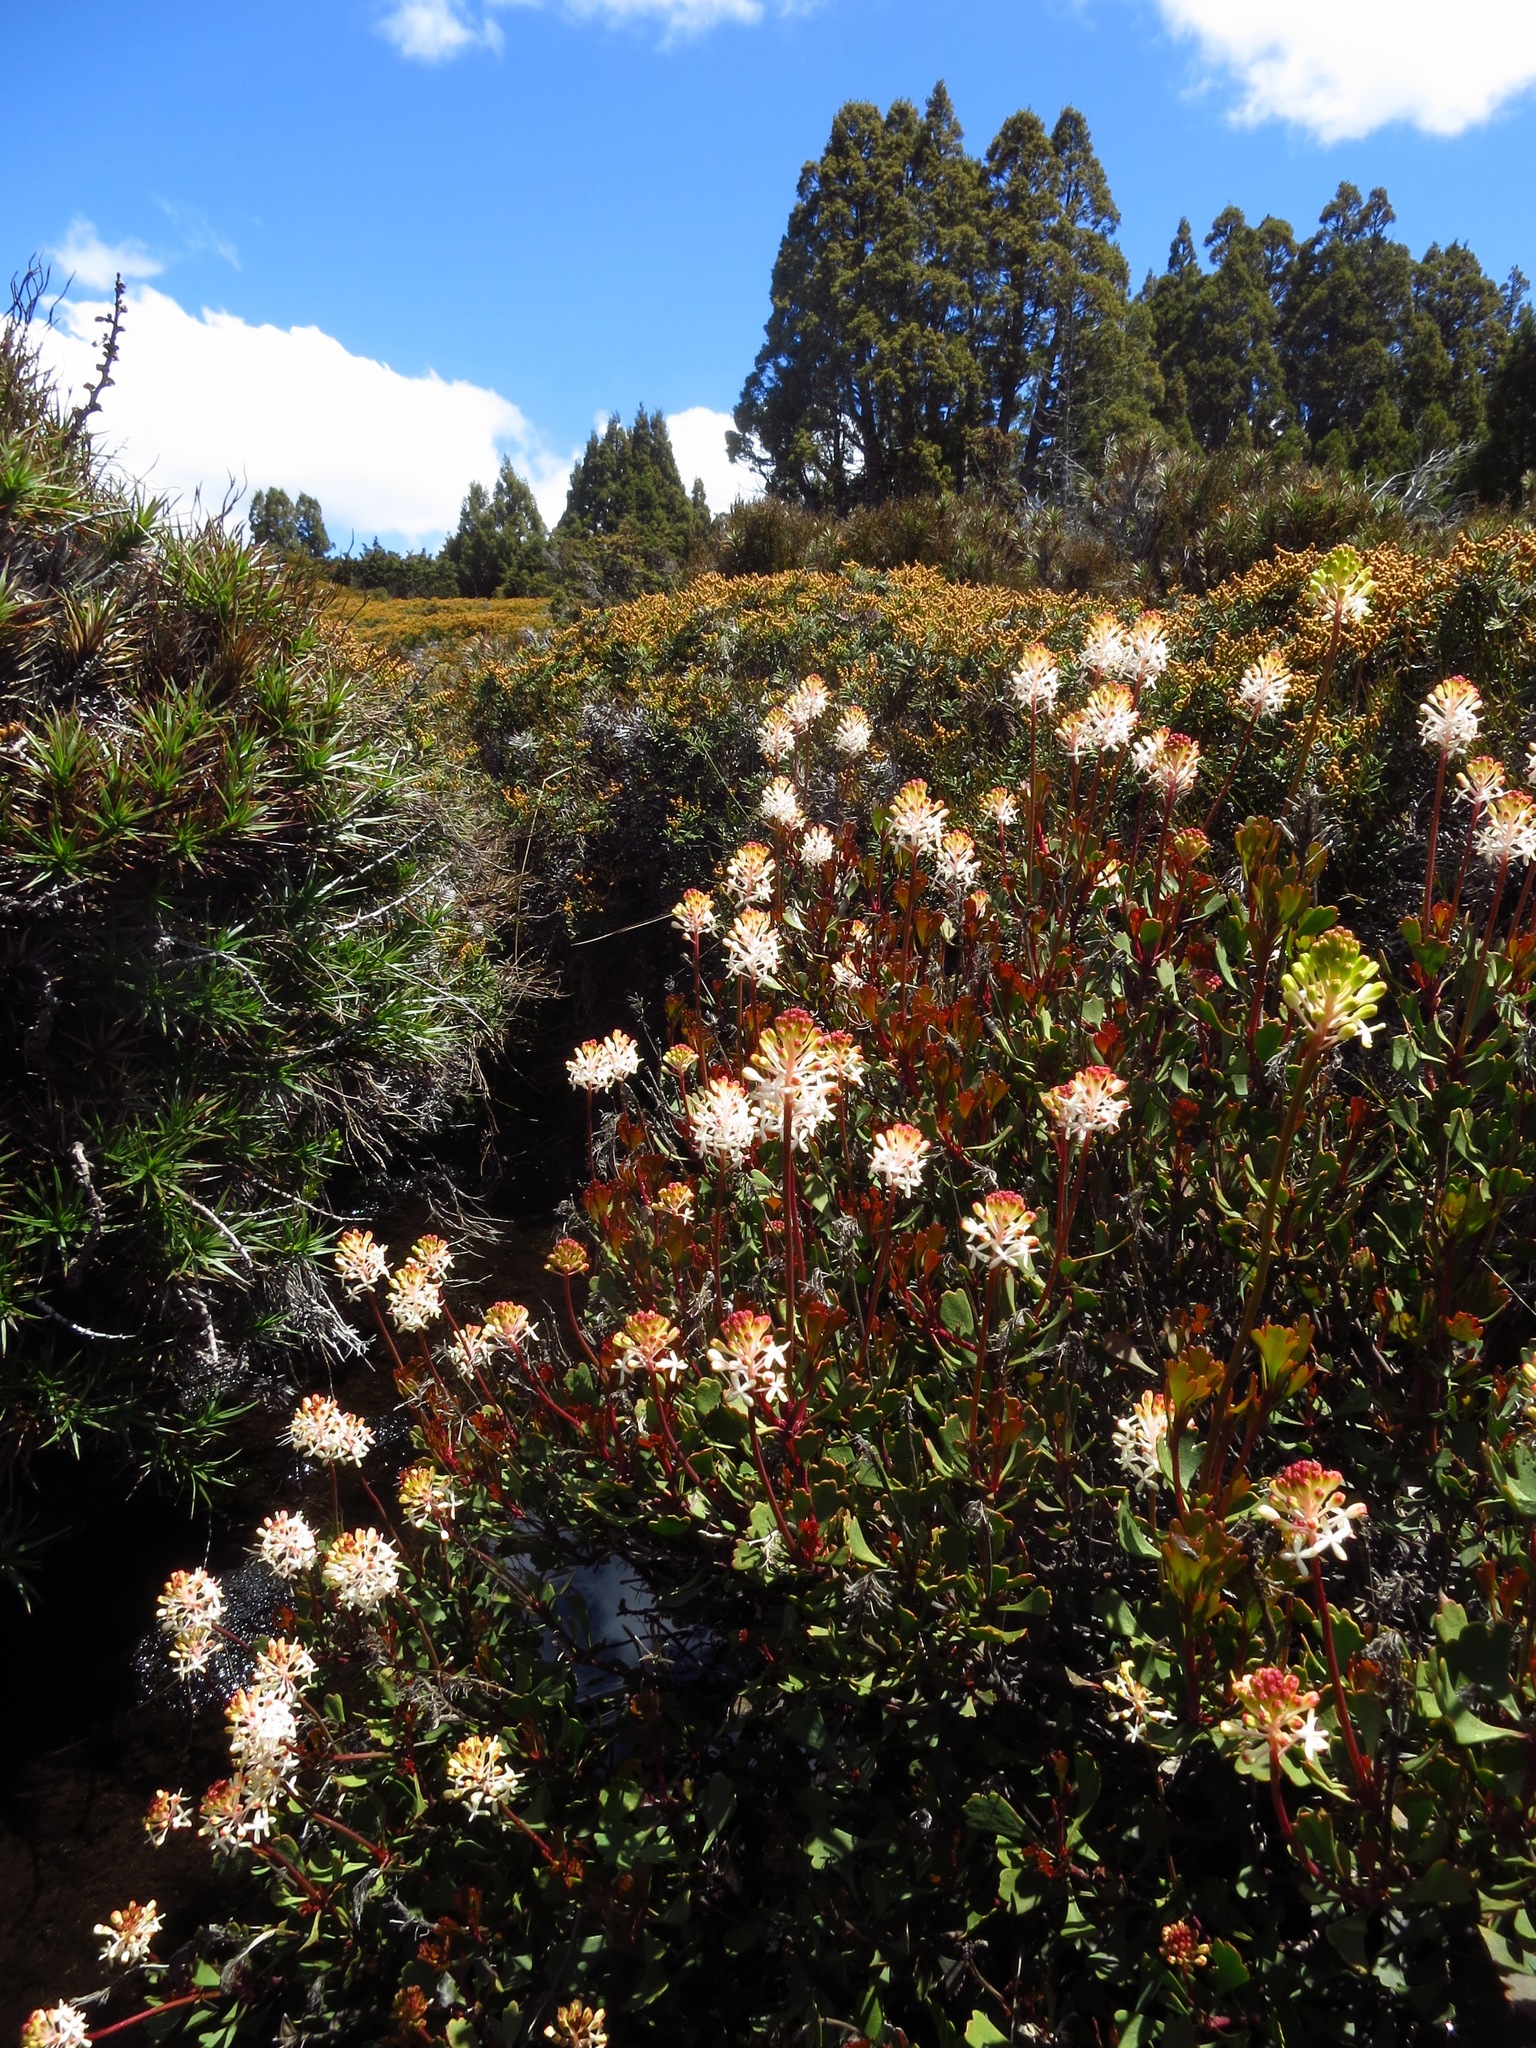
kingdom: Plantae
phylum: Tracheophyta
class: Magnoliopsida
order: Proteales
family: Proteaceae
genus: Bellendena
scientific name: Bellendena montana
